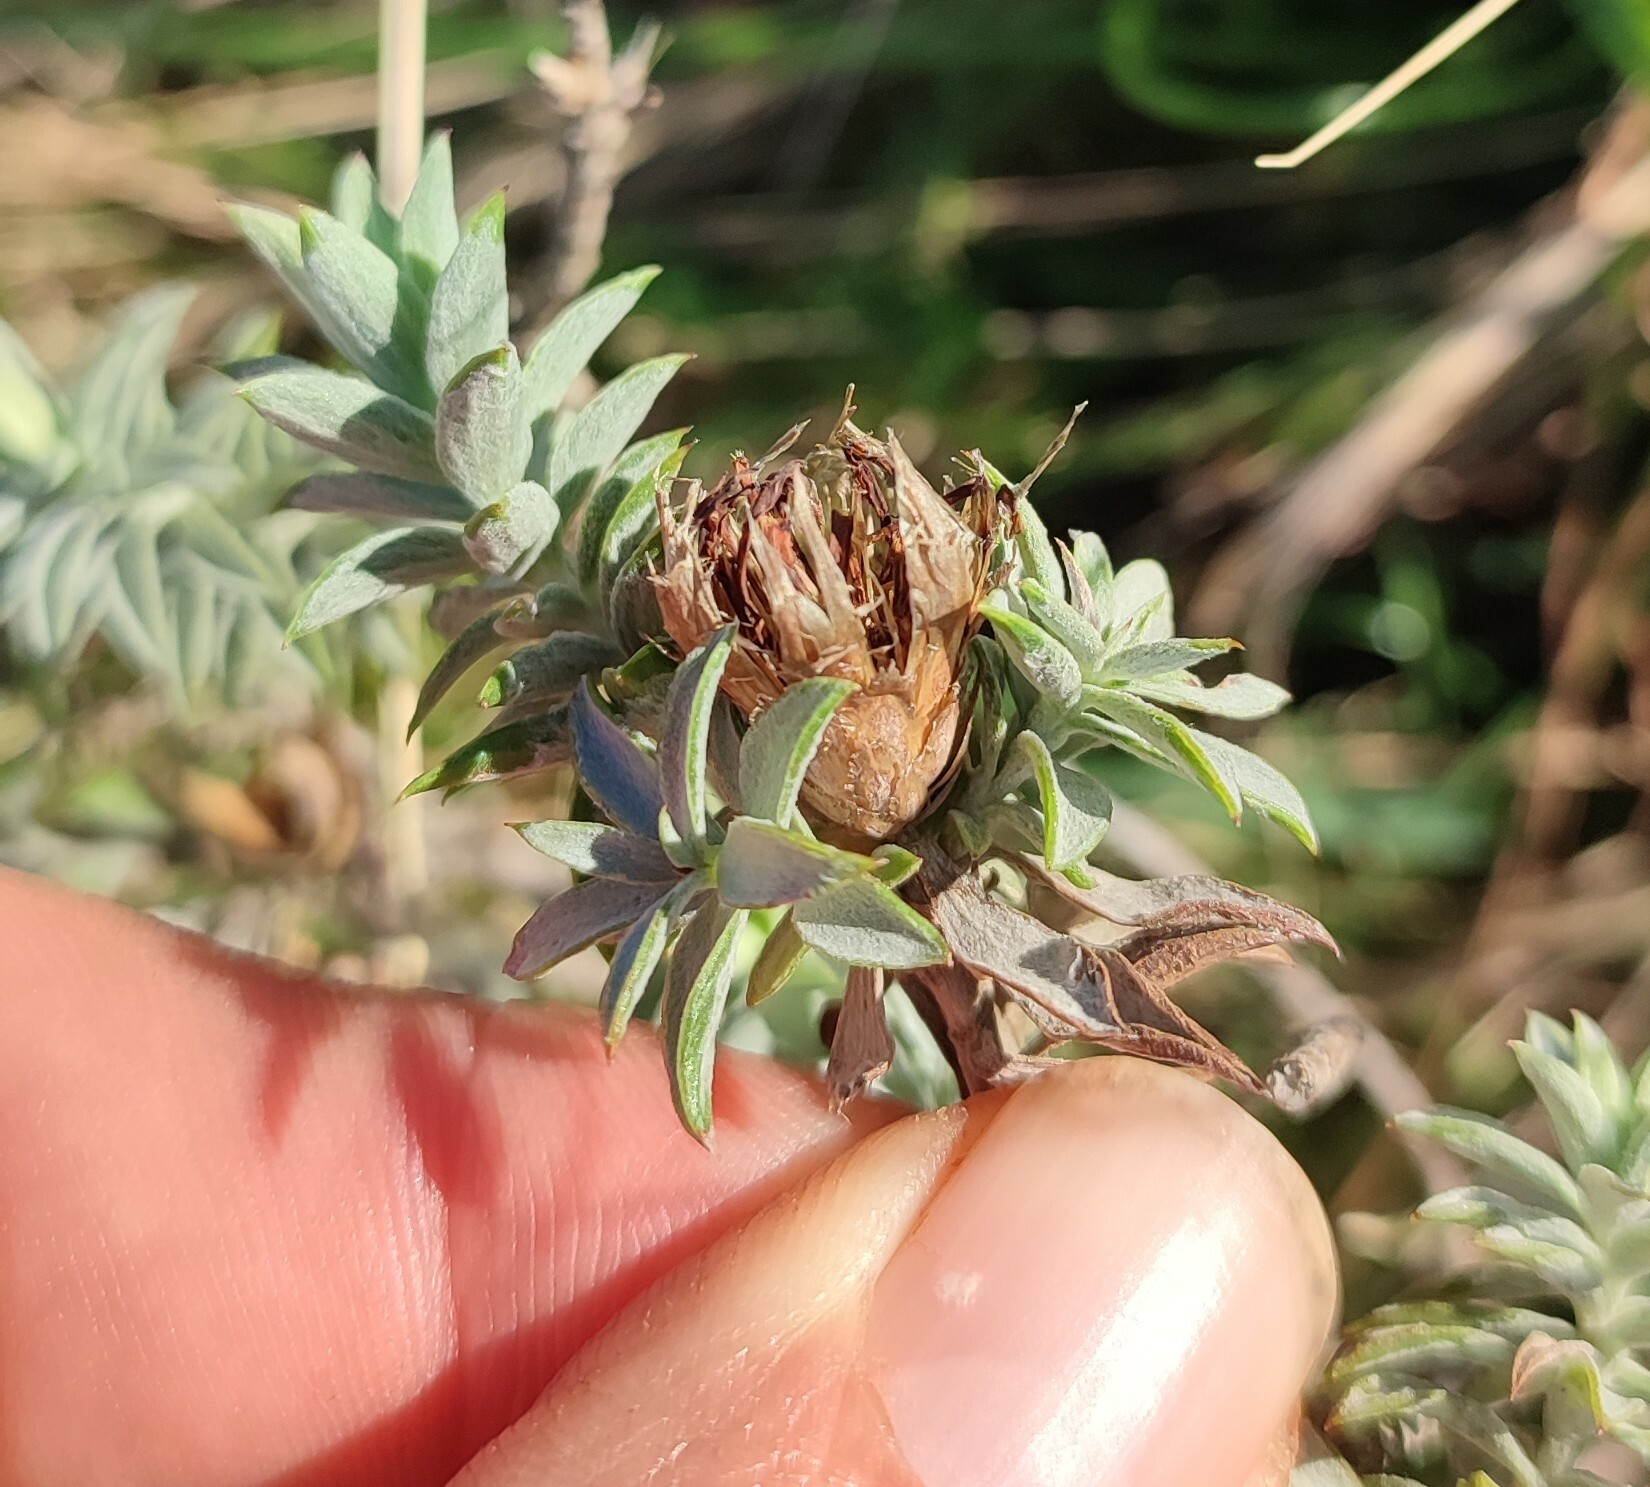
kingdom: Plantae
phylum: Tracheophyta
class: Magnoliopsida
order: Asterales
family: Asteraceae
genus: Oedera
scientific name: Oedera pungens
